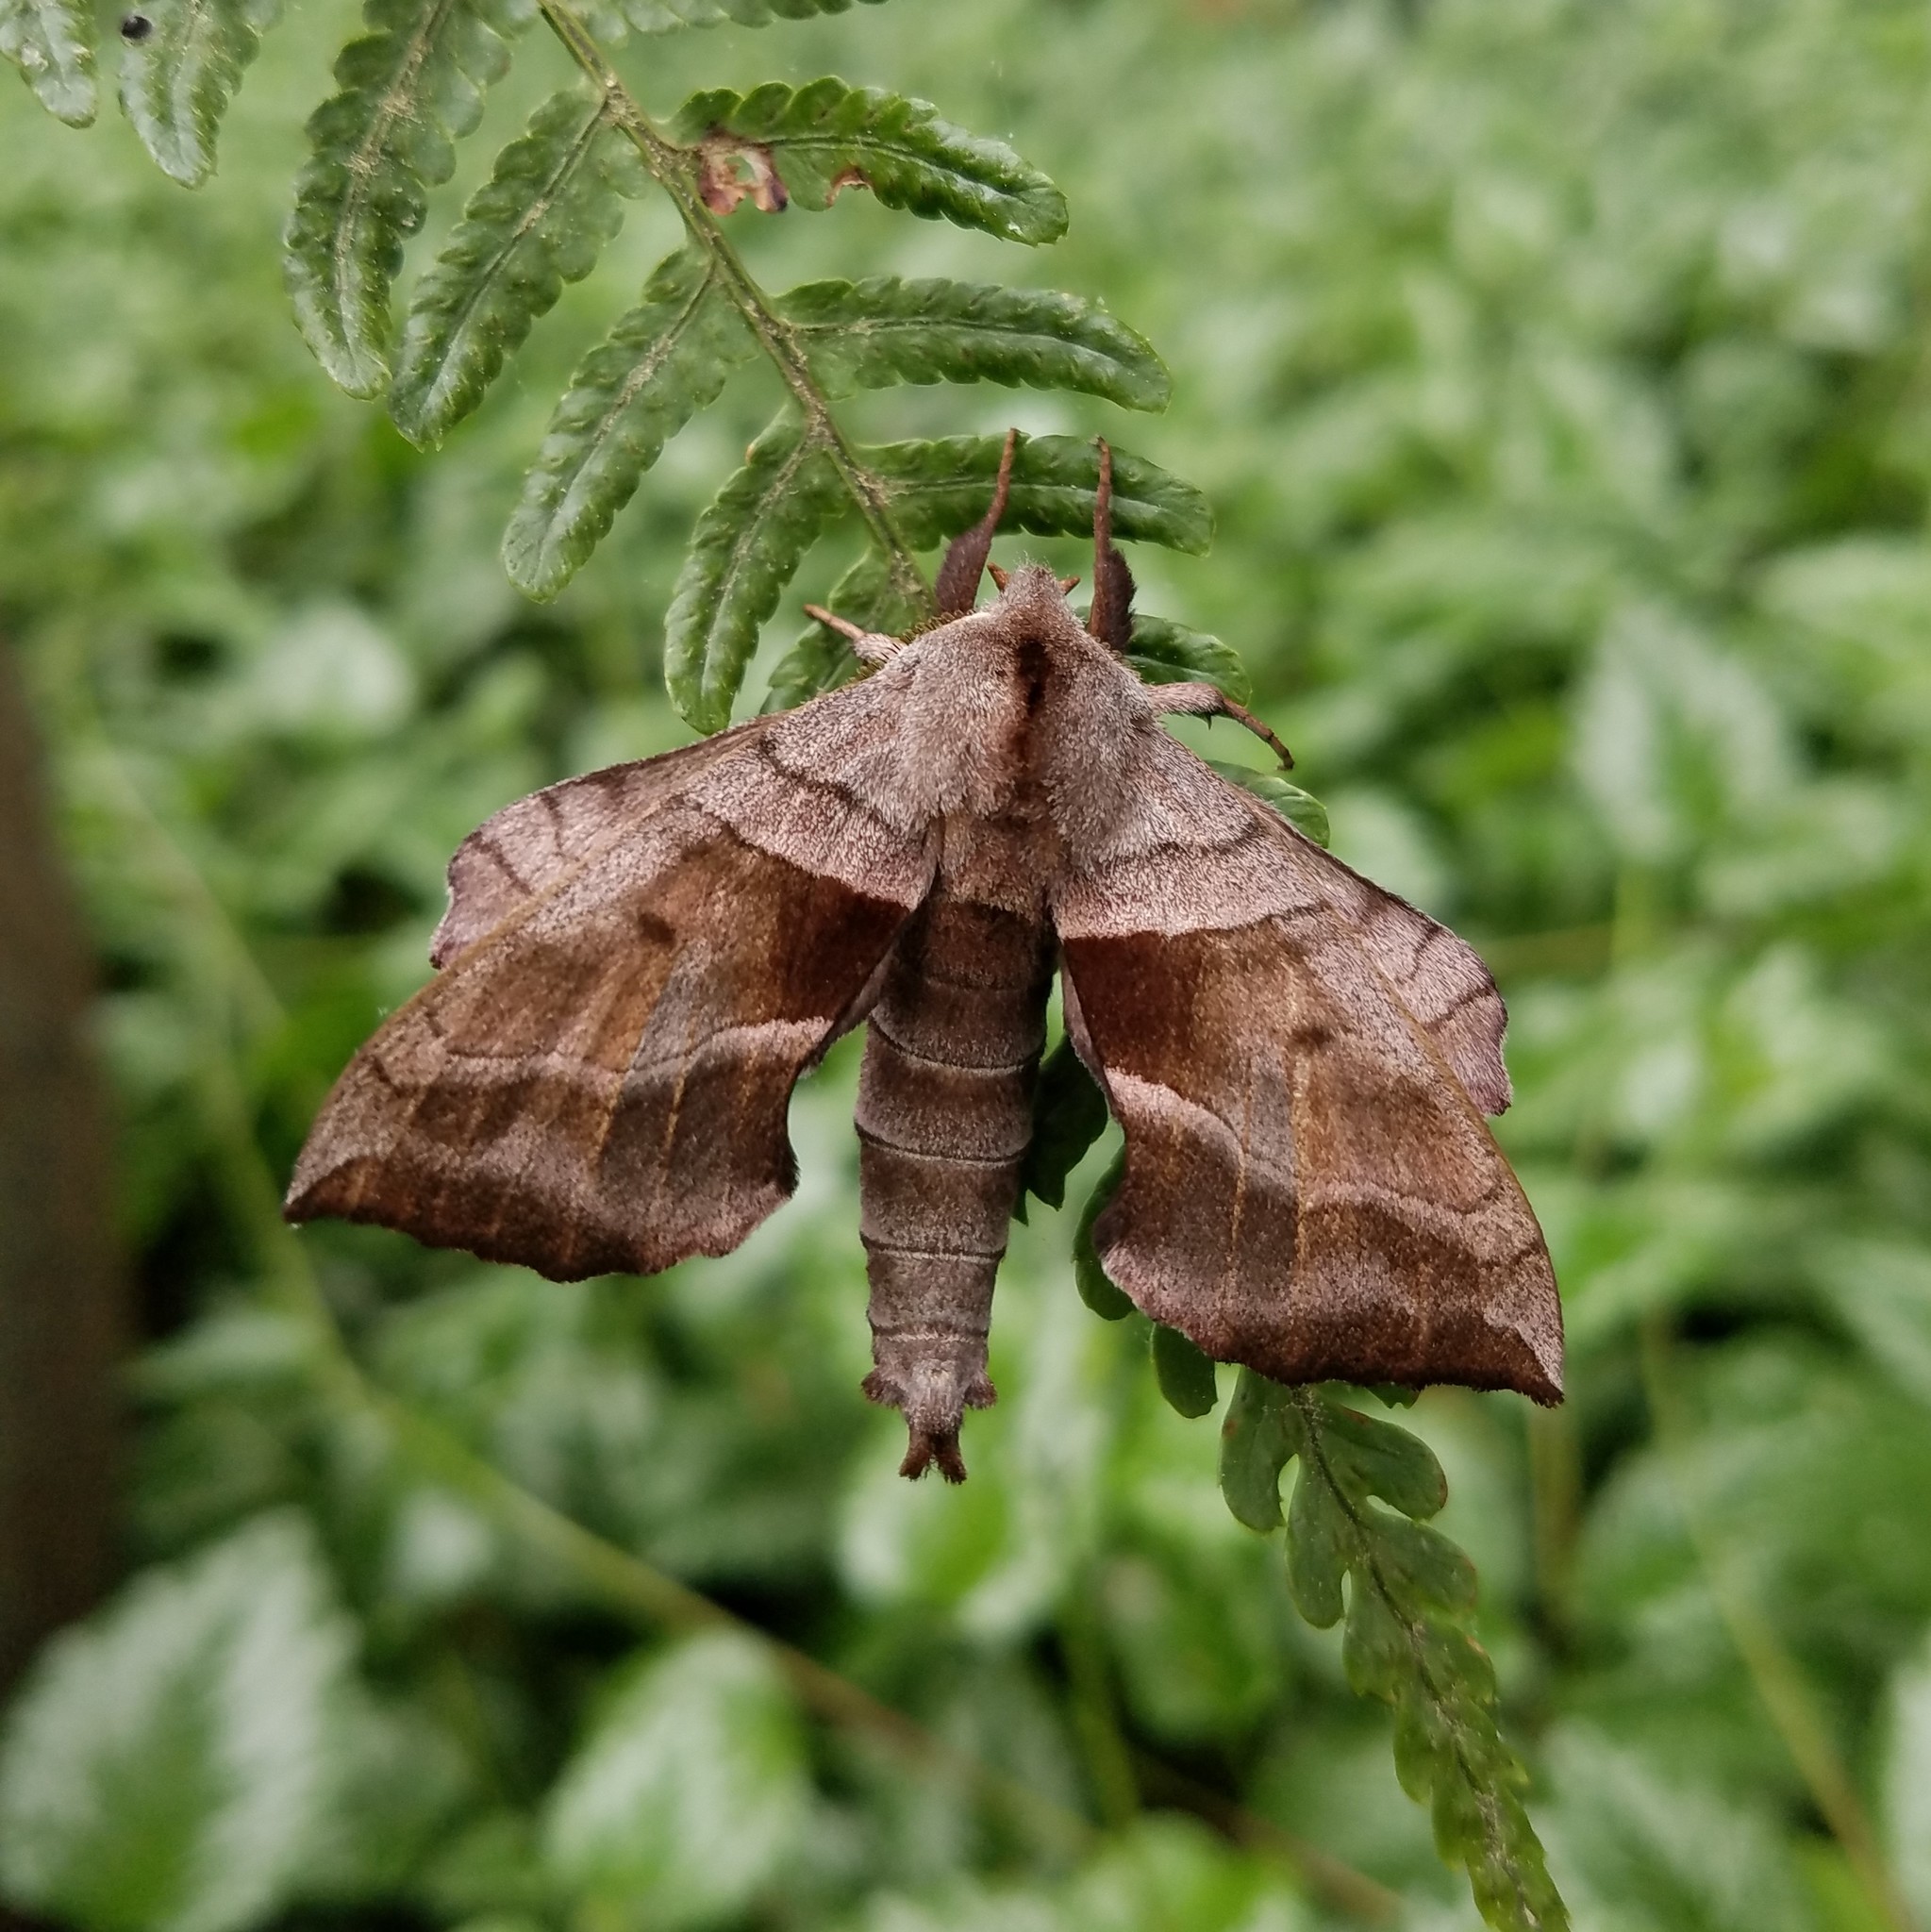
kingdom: Animalia
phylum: Arthropoda
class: Insecta
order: Lepidoptera
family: Sphingidae
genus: Amorpha
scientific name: Amorpha juglandis
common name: Walnut sphinx
